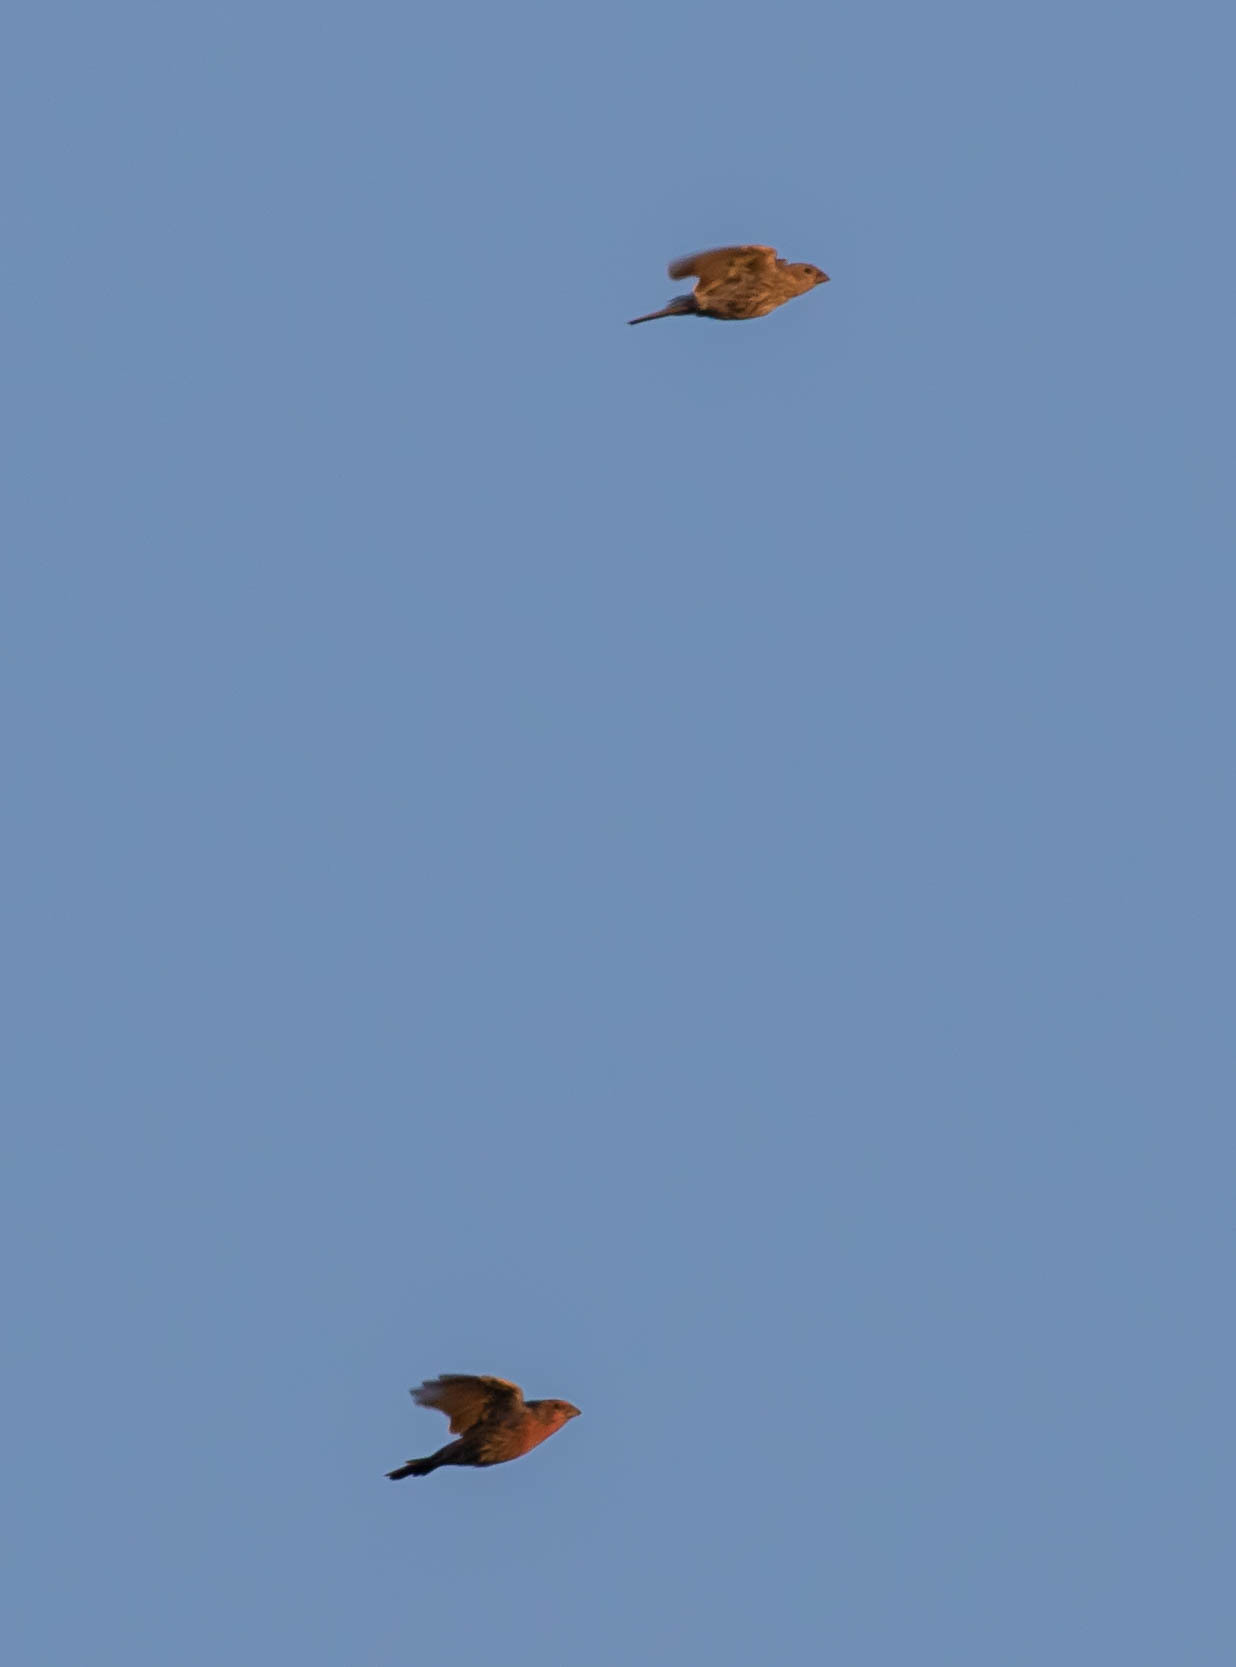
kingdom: Animalia
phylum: Chordata
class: Aves
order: Passeriformes
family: Fringillidae
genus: Haemorhous
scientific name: Haemorhous mexicanus
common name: House finch
